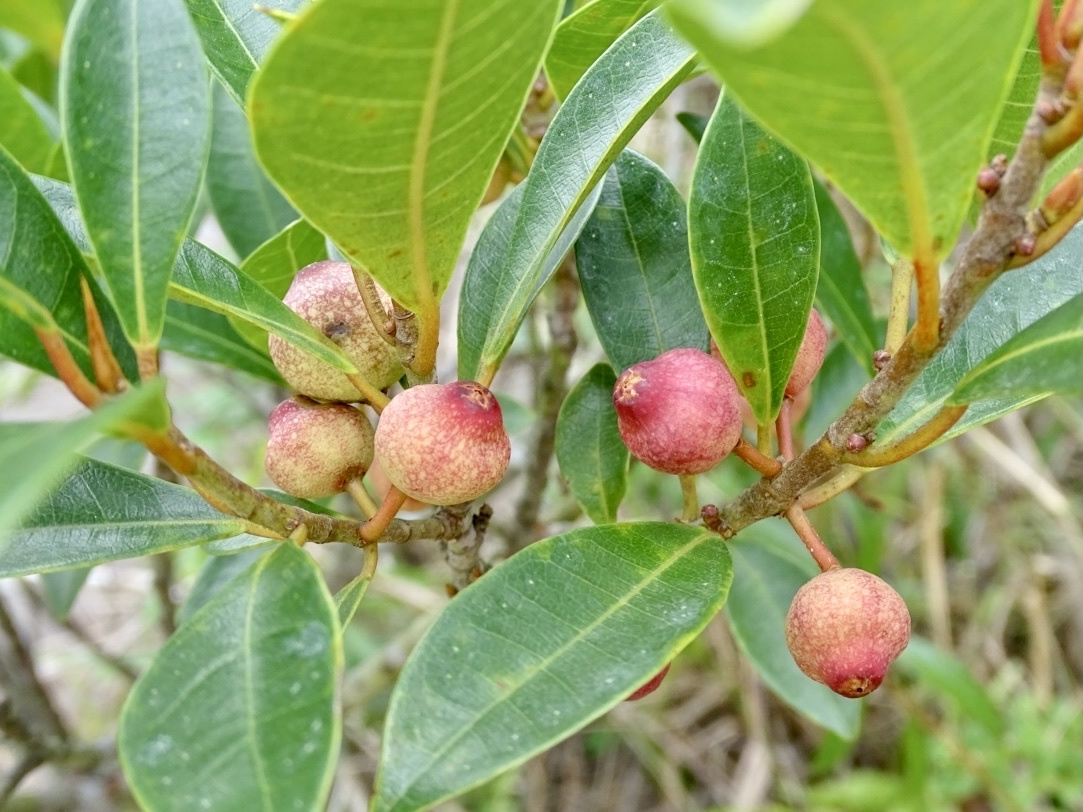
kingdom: Plantae
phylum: Tracheophyta
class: Magnoliopsida
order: Rosales
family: Moraceae
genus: Ficus
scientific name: Ficus variolosa
